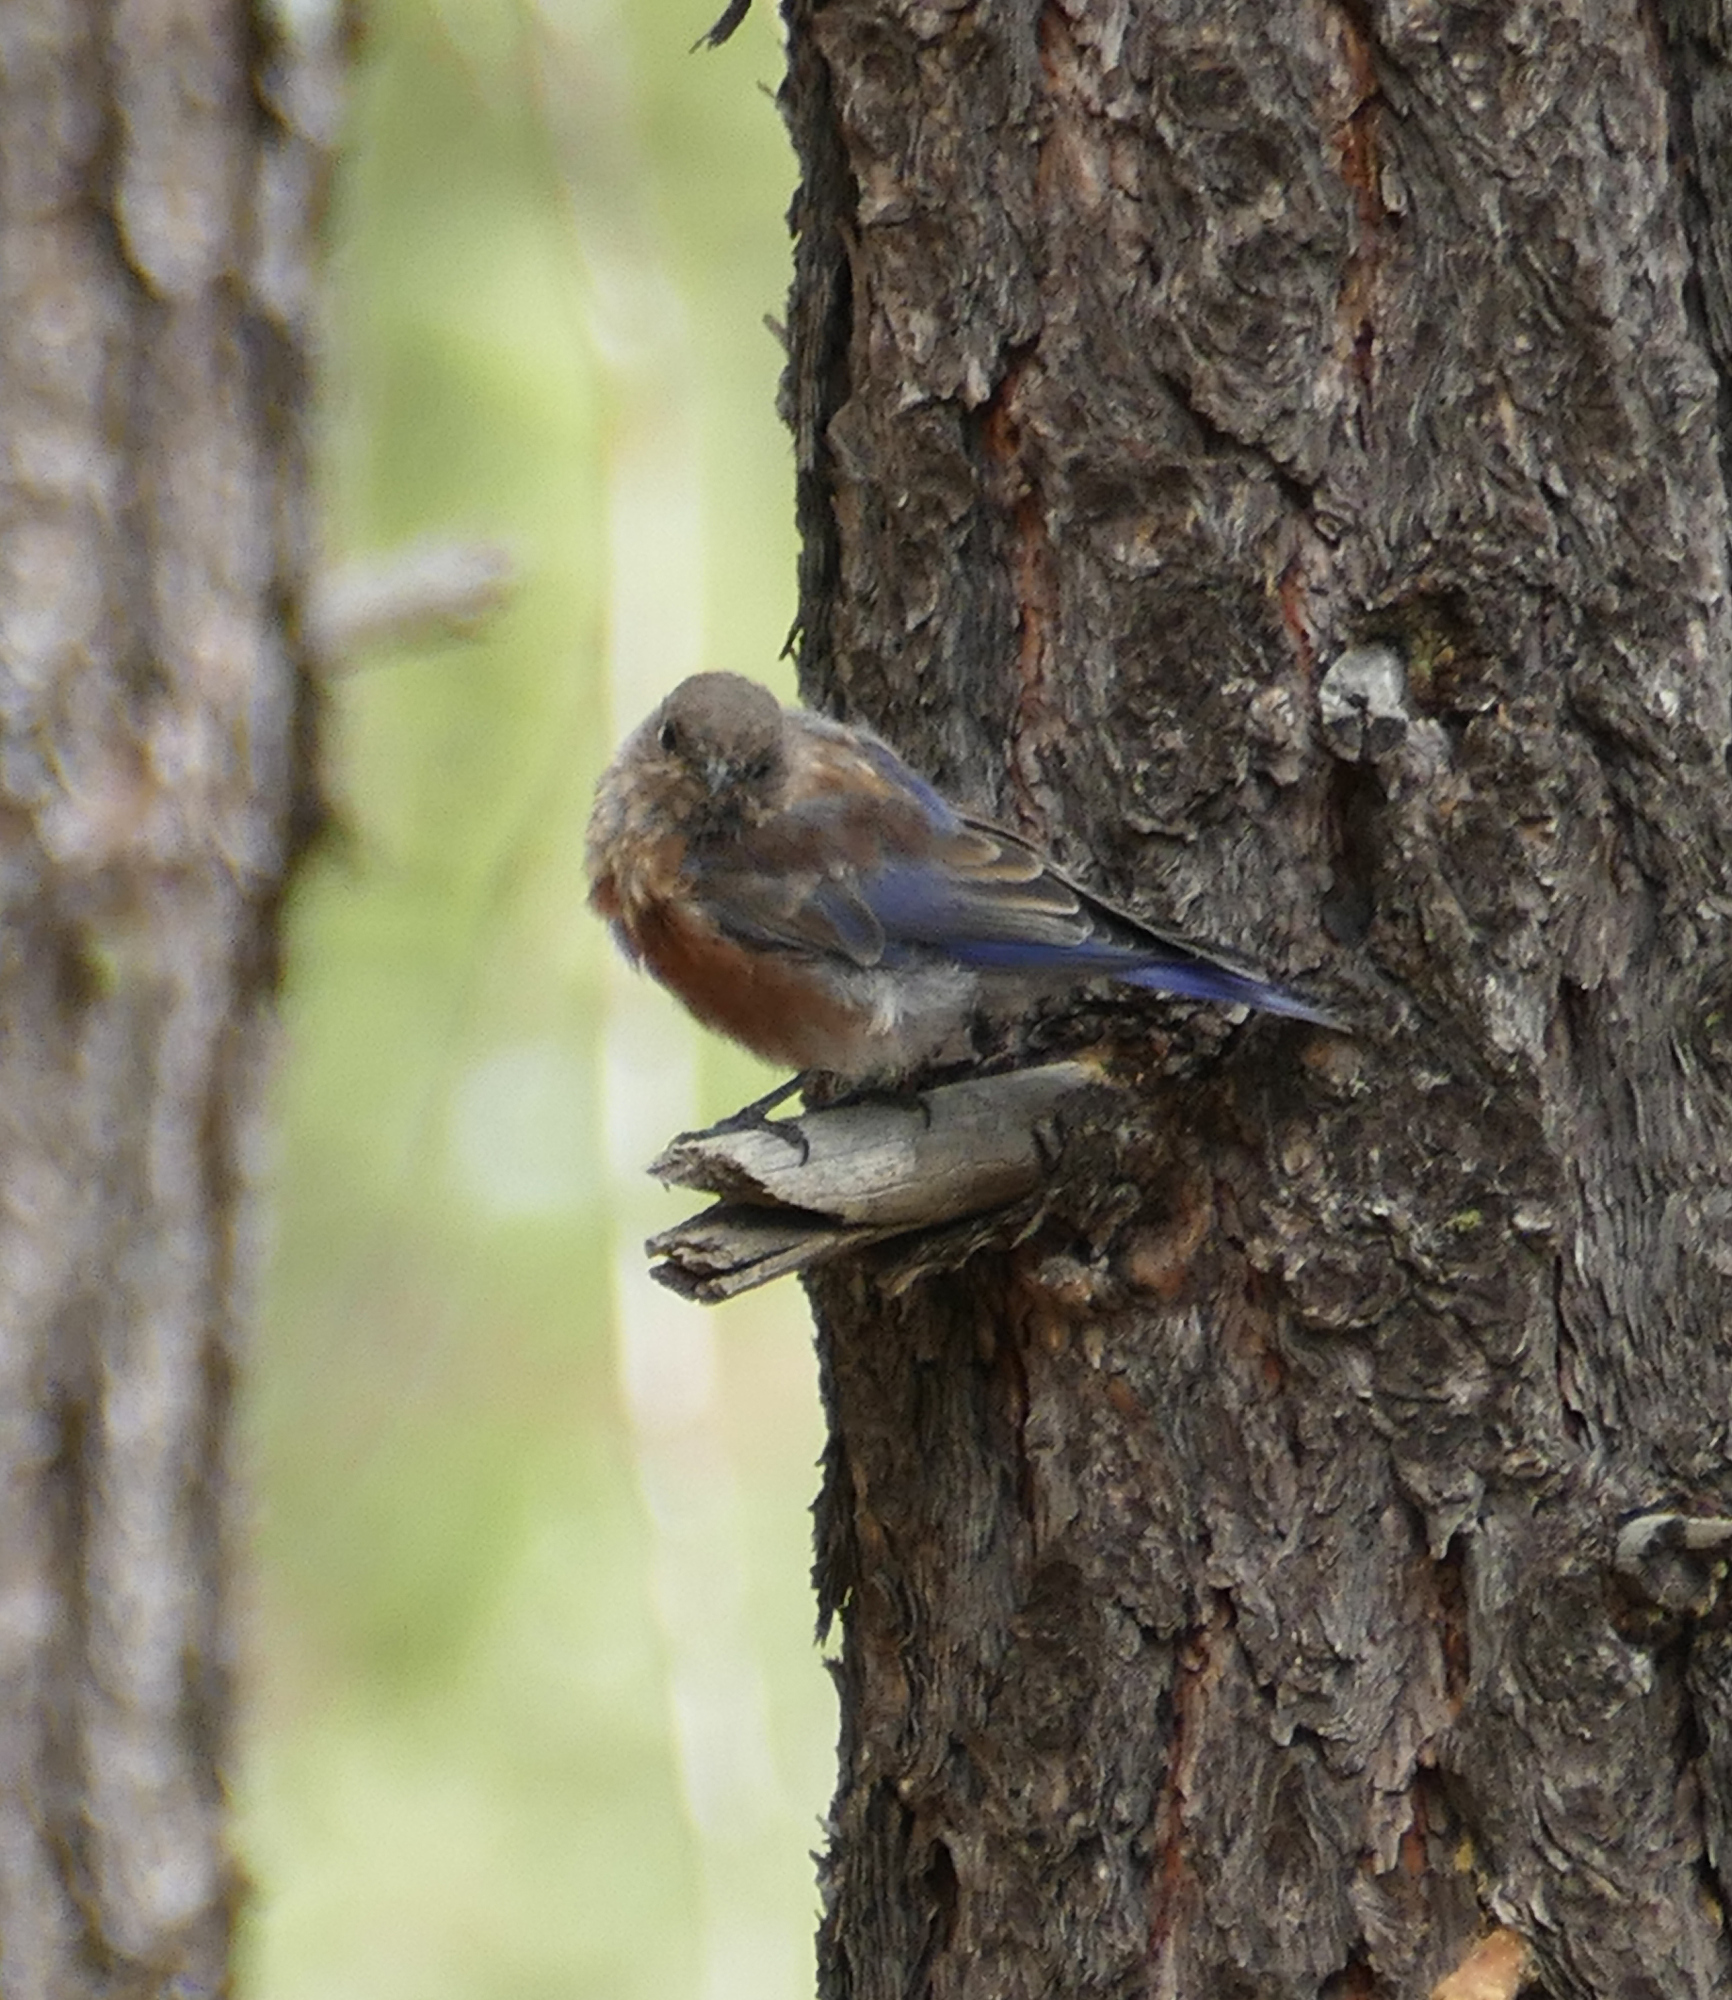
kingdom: Animalia
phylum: Chordata
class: Aves
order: Passeriformes
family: Turdidae
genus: Sialia
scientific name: Sialia mexicana
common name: Western bluebird
